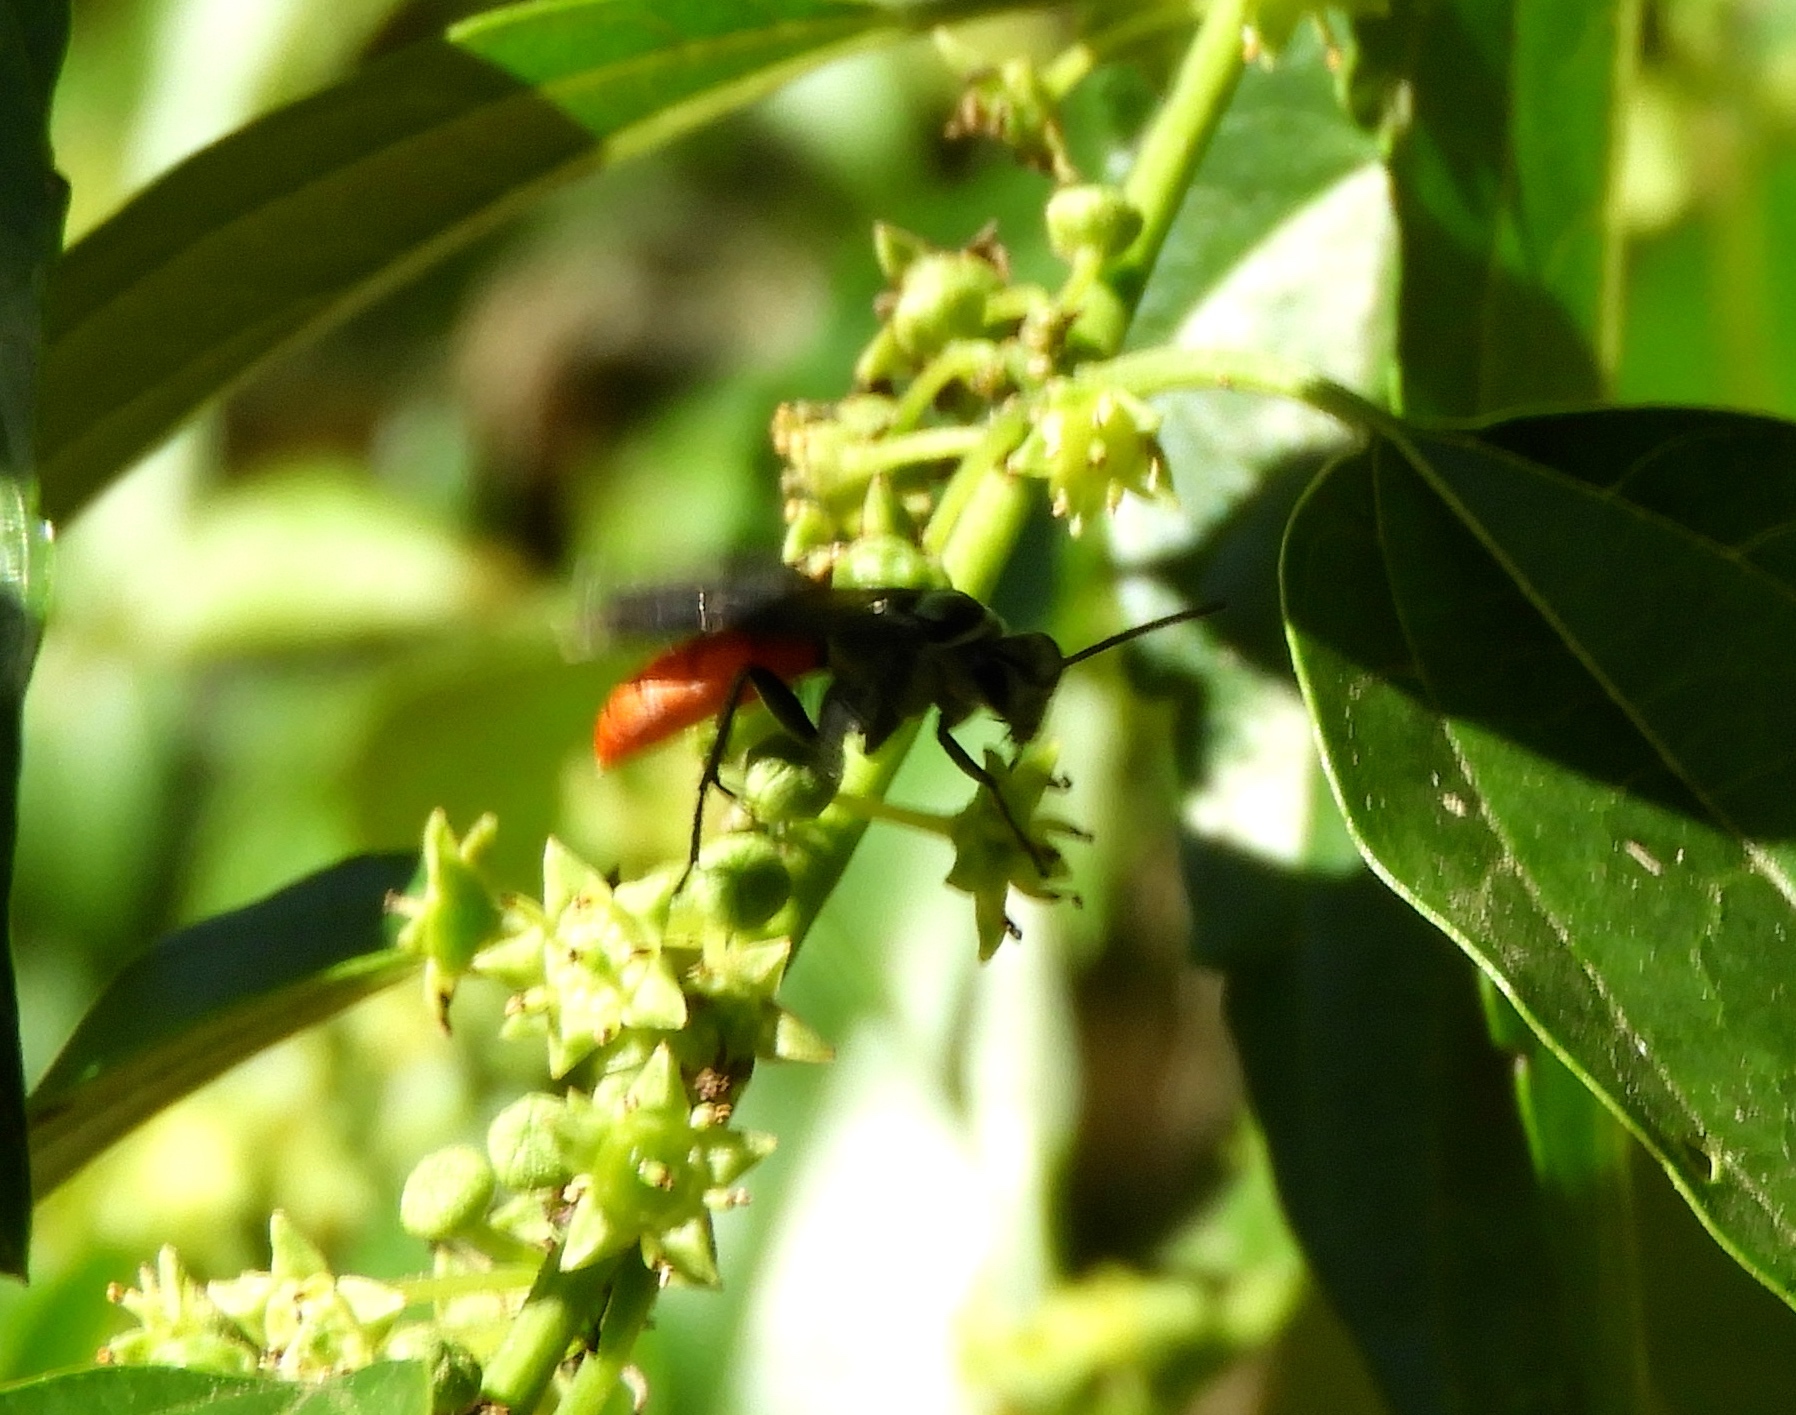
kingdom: Animalia
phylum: Arthropoda
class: Insecta
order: Hymenoptera
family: Pompilidae
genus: Xerochares
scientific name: Xerochares expulsus
